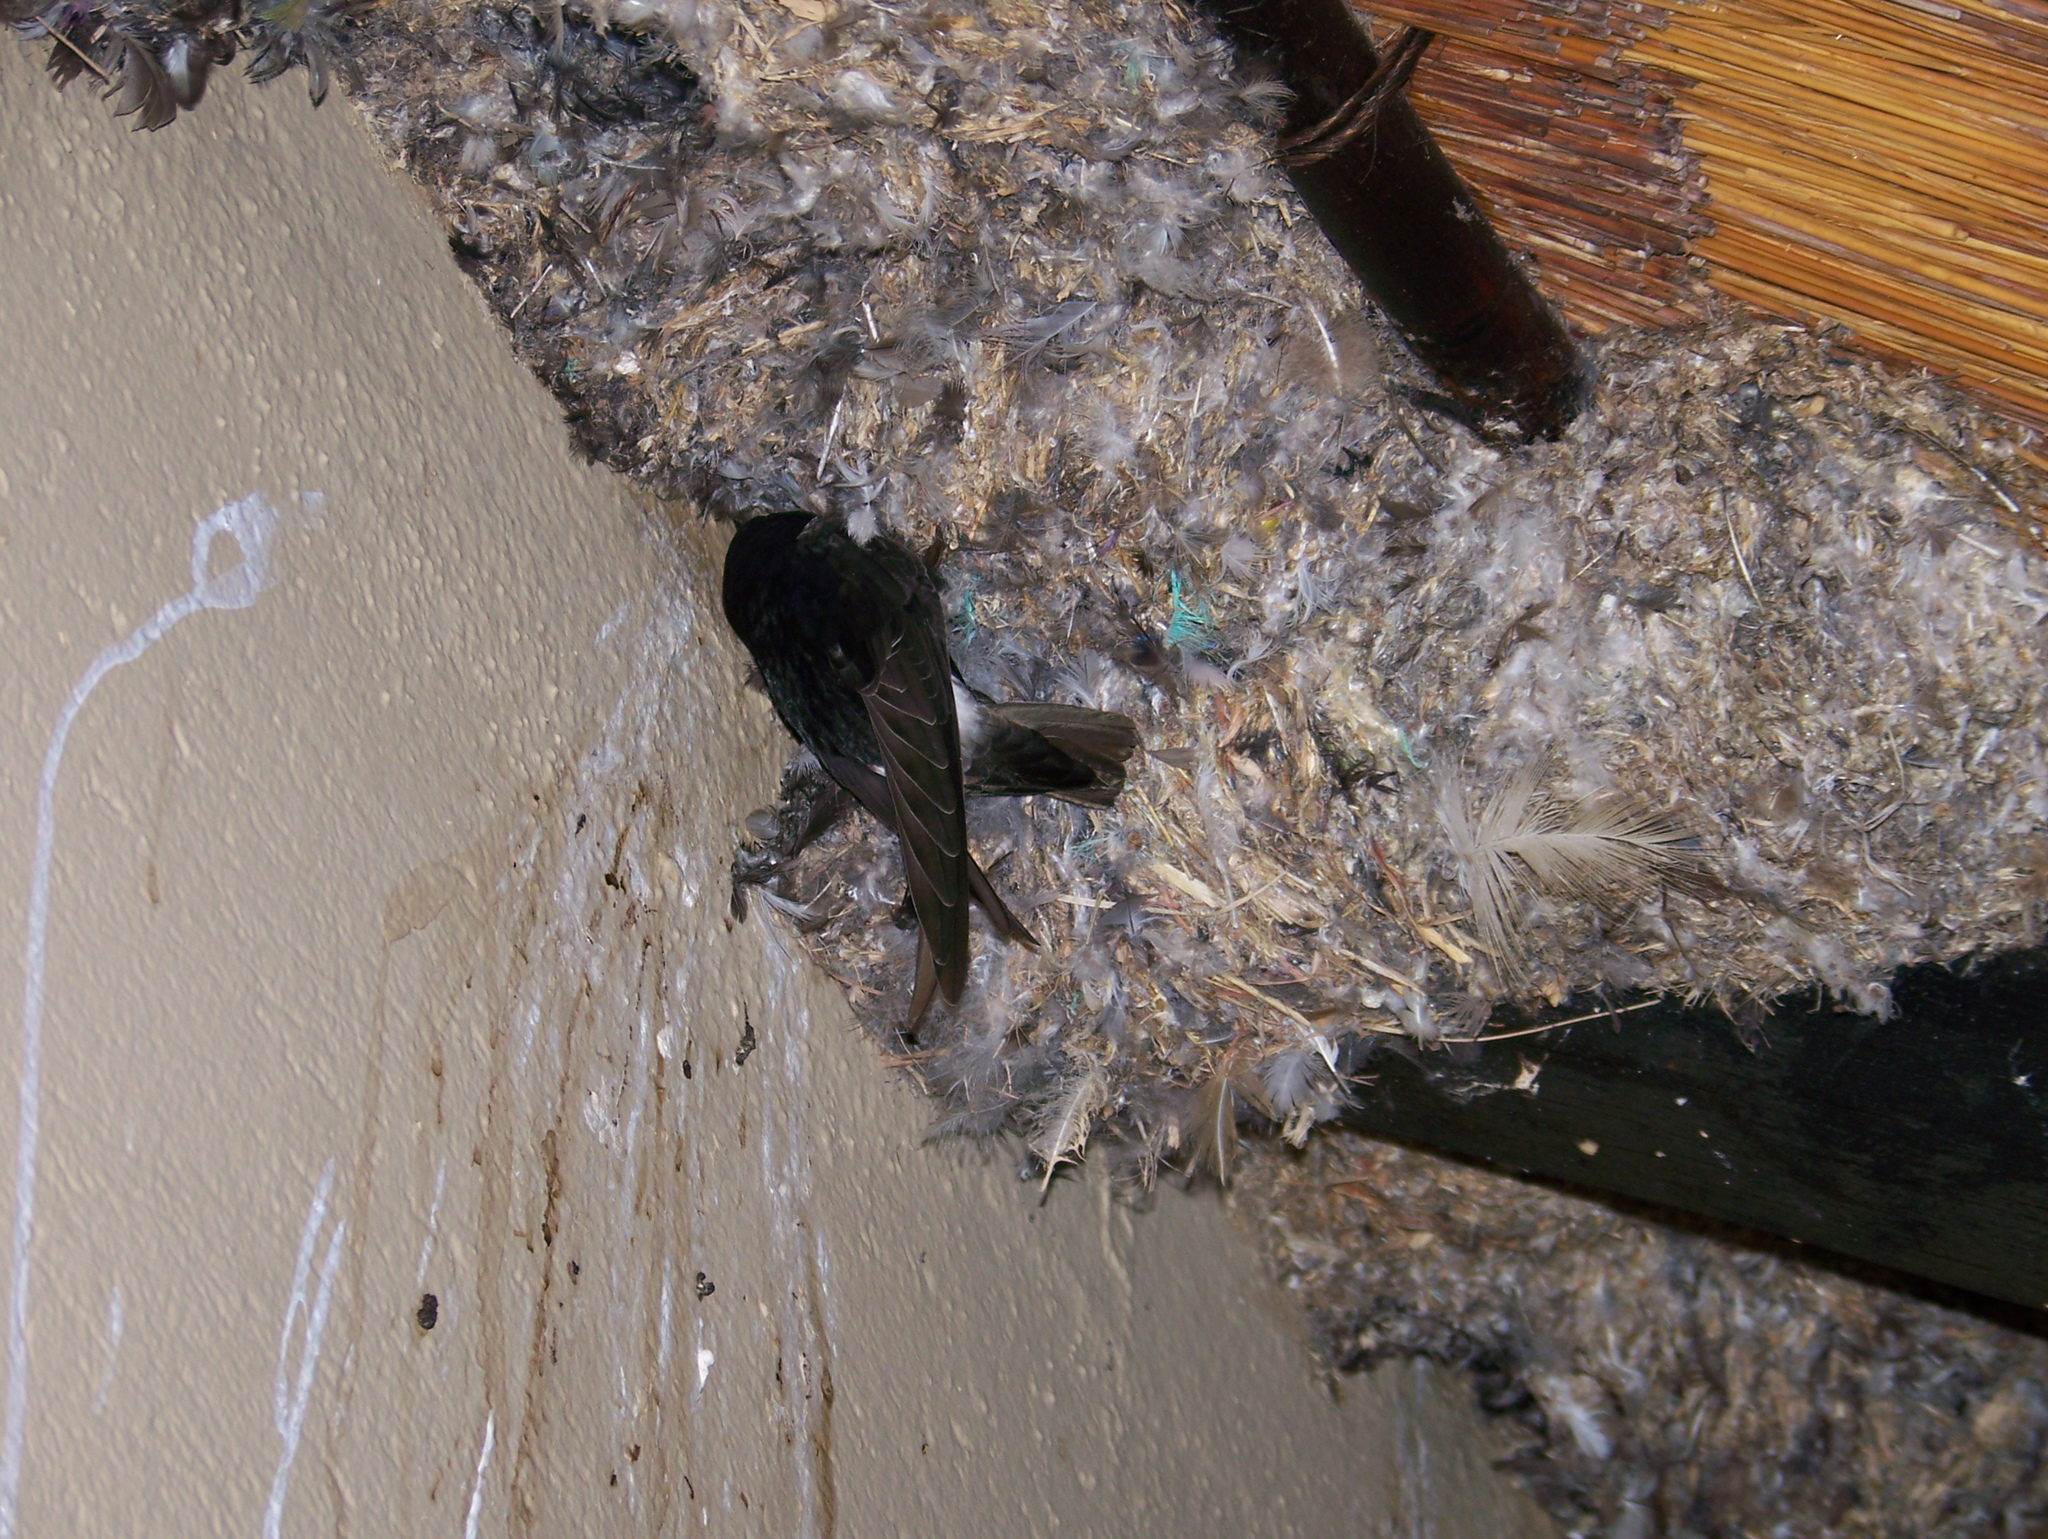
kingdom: Animalia
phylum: Chordata
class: Aves
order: Apodiformes
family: Apodidae
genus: Apus
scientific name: Apus affinis
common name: Little swift
